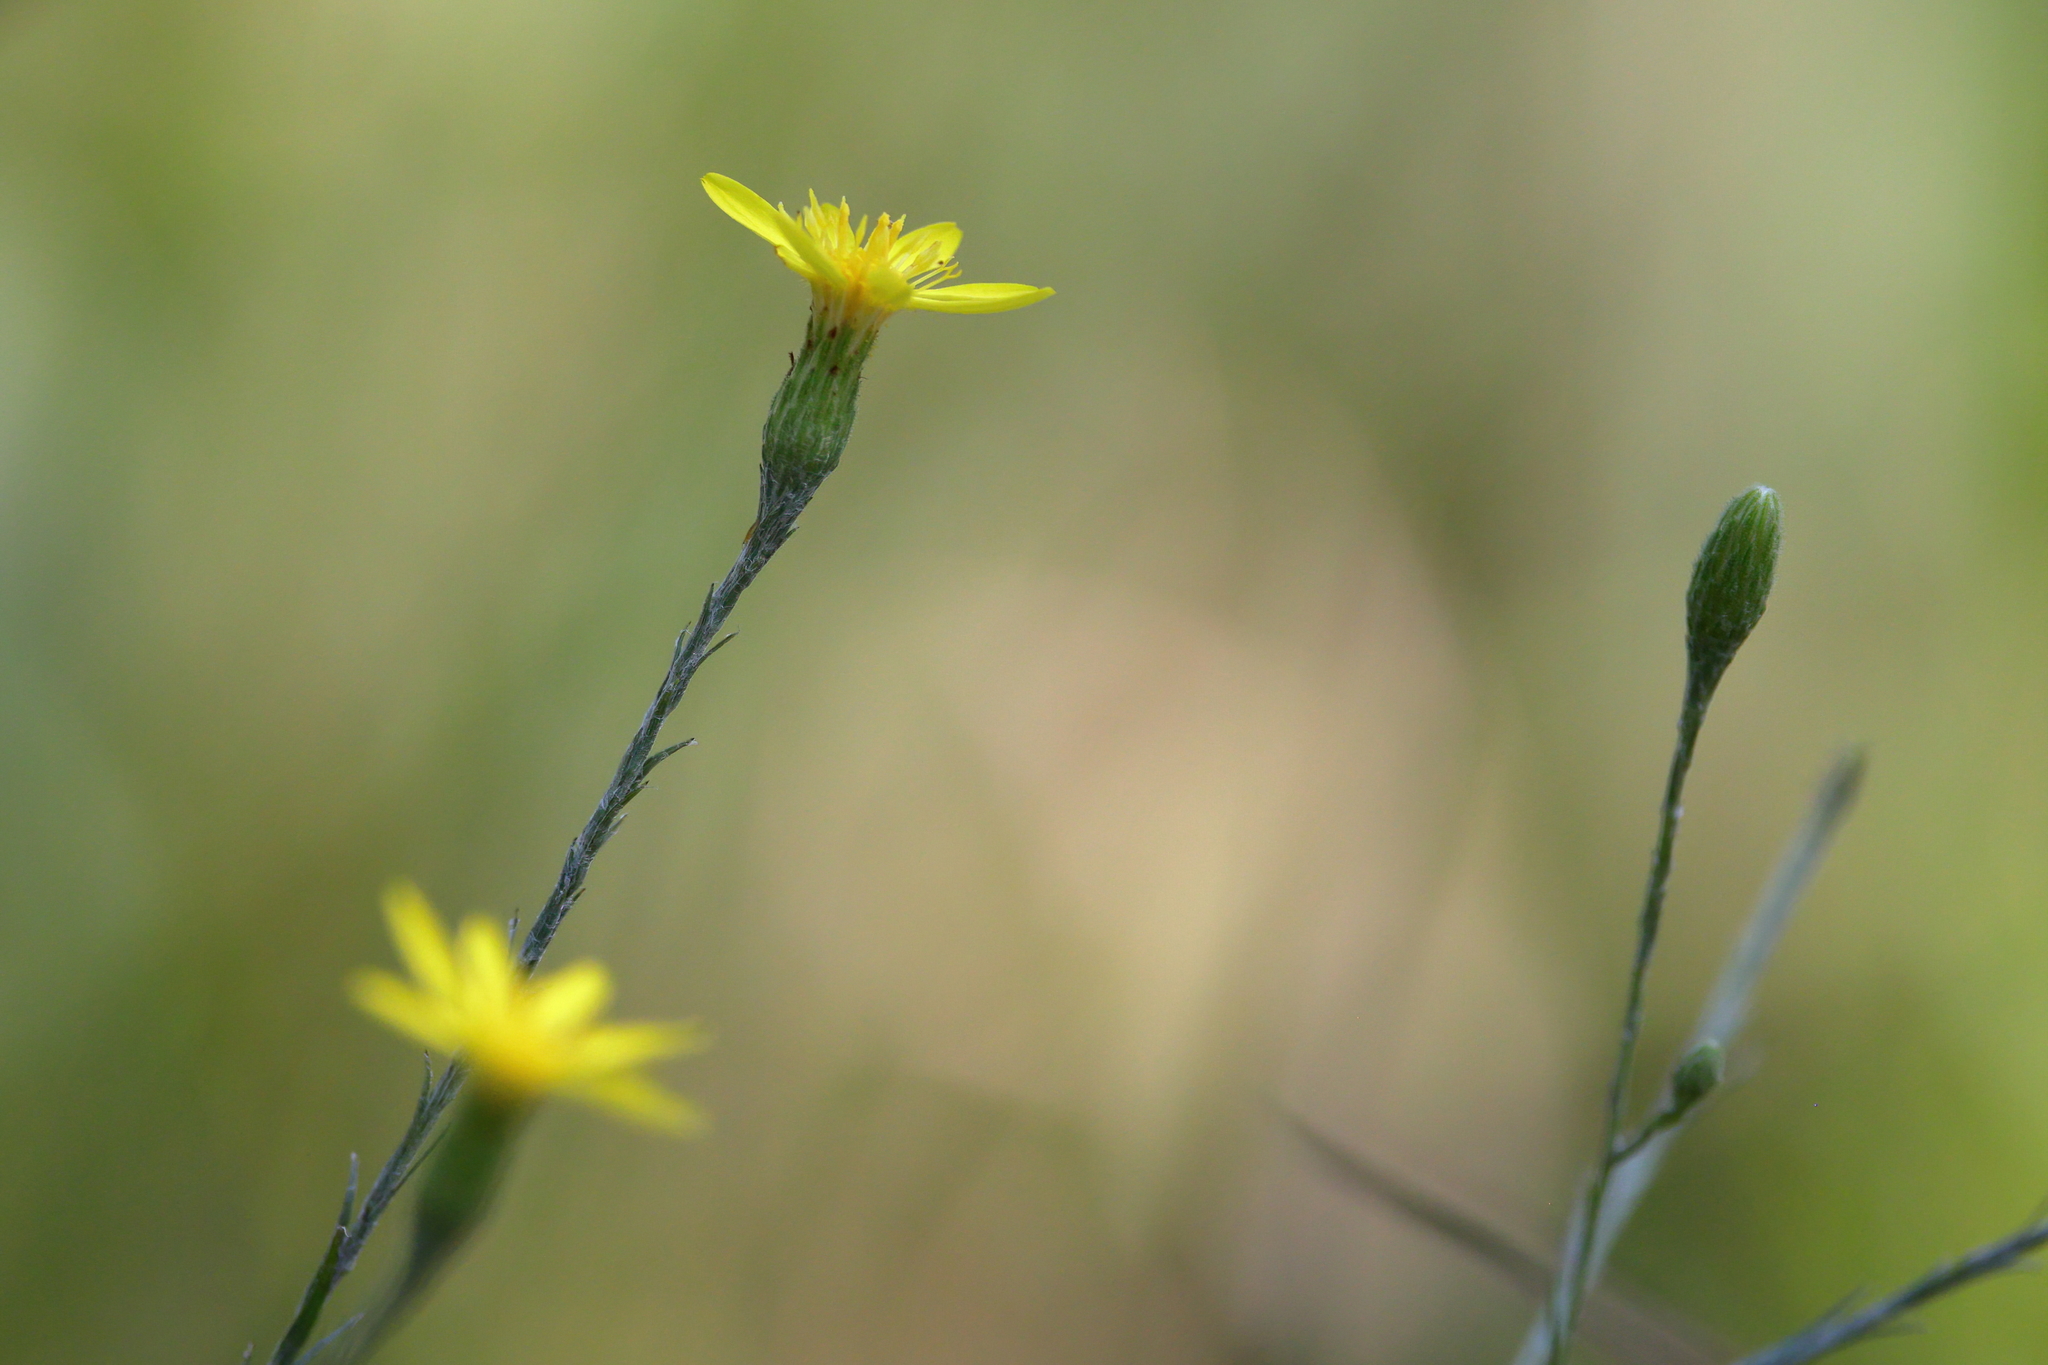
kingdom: Plantae
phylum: Tracheophyta
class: Magnoliopsida
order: Asterales
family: Asteraceae
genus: Pityopsis
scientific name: Pityopsis graminifolia
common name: Grass-leaf golden-aster
